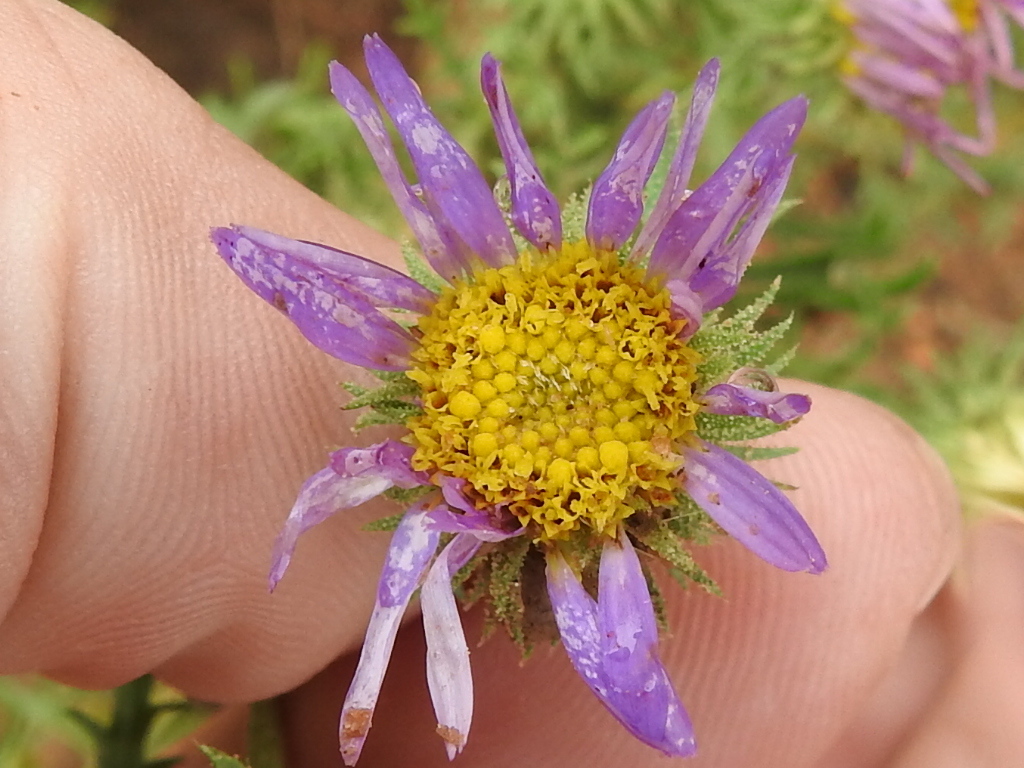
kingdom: Plantae
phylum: Tracheophyta
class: Magnoliopsida
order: Asterales
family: Asteraceae
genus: Machaeranthera
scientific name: Machaeranthera tanacetifolia
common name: Tansy-aster
